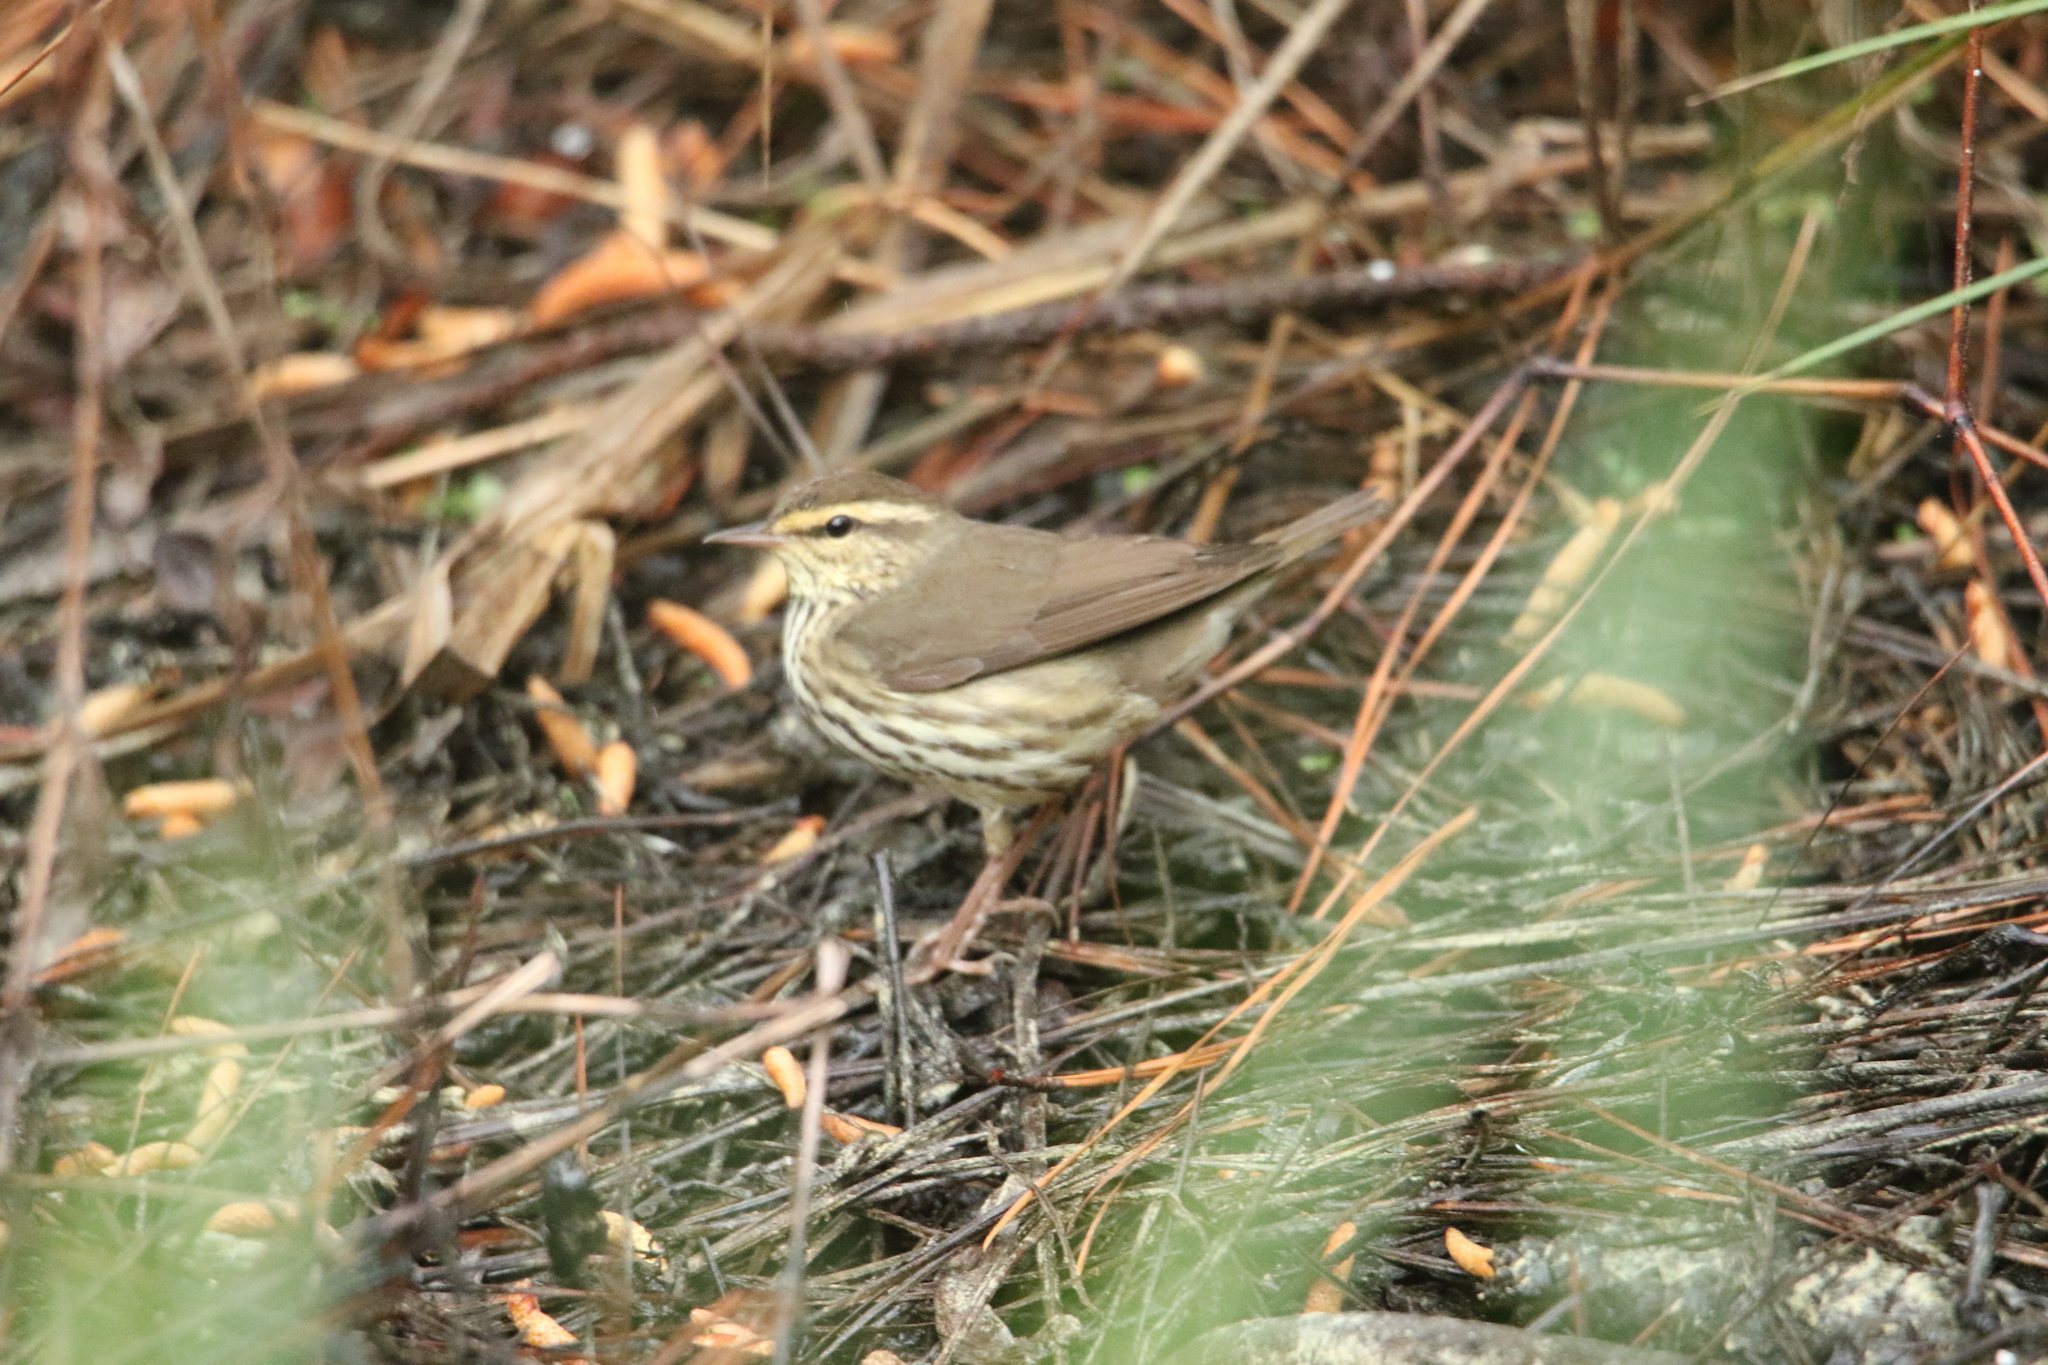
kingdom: Animalia
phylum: Chordata
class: Aves
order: Passeriformes
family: Parulidae
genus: Parkesia
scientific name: Parkesia noveboracensis
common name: Northern waterthrush
